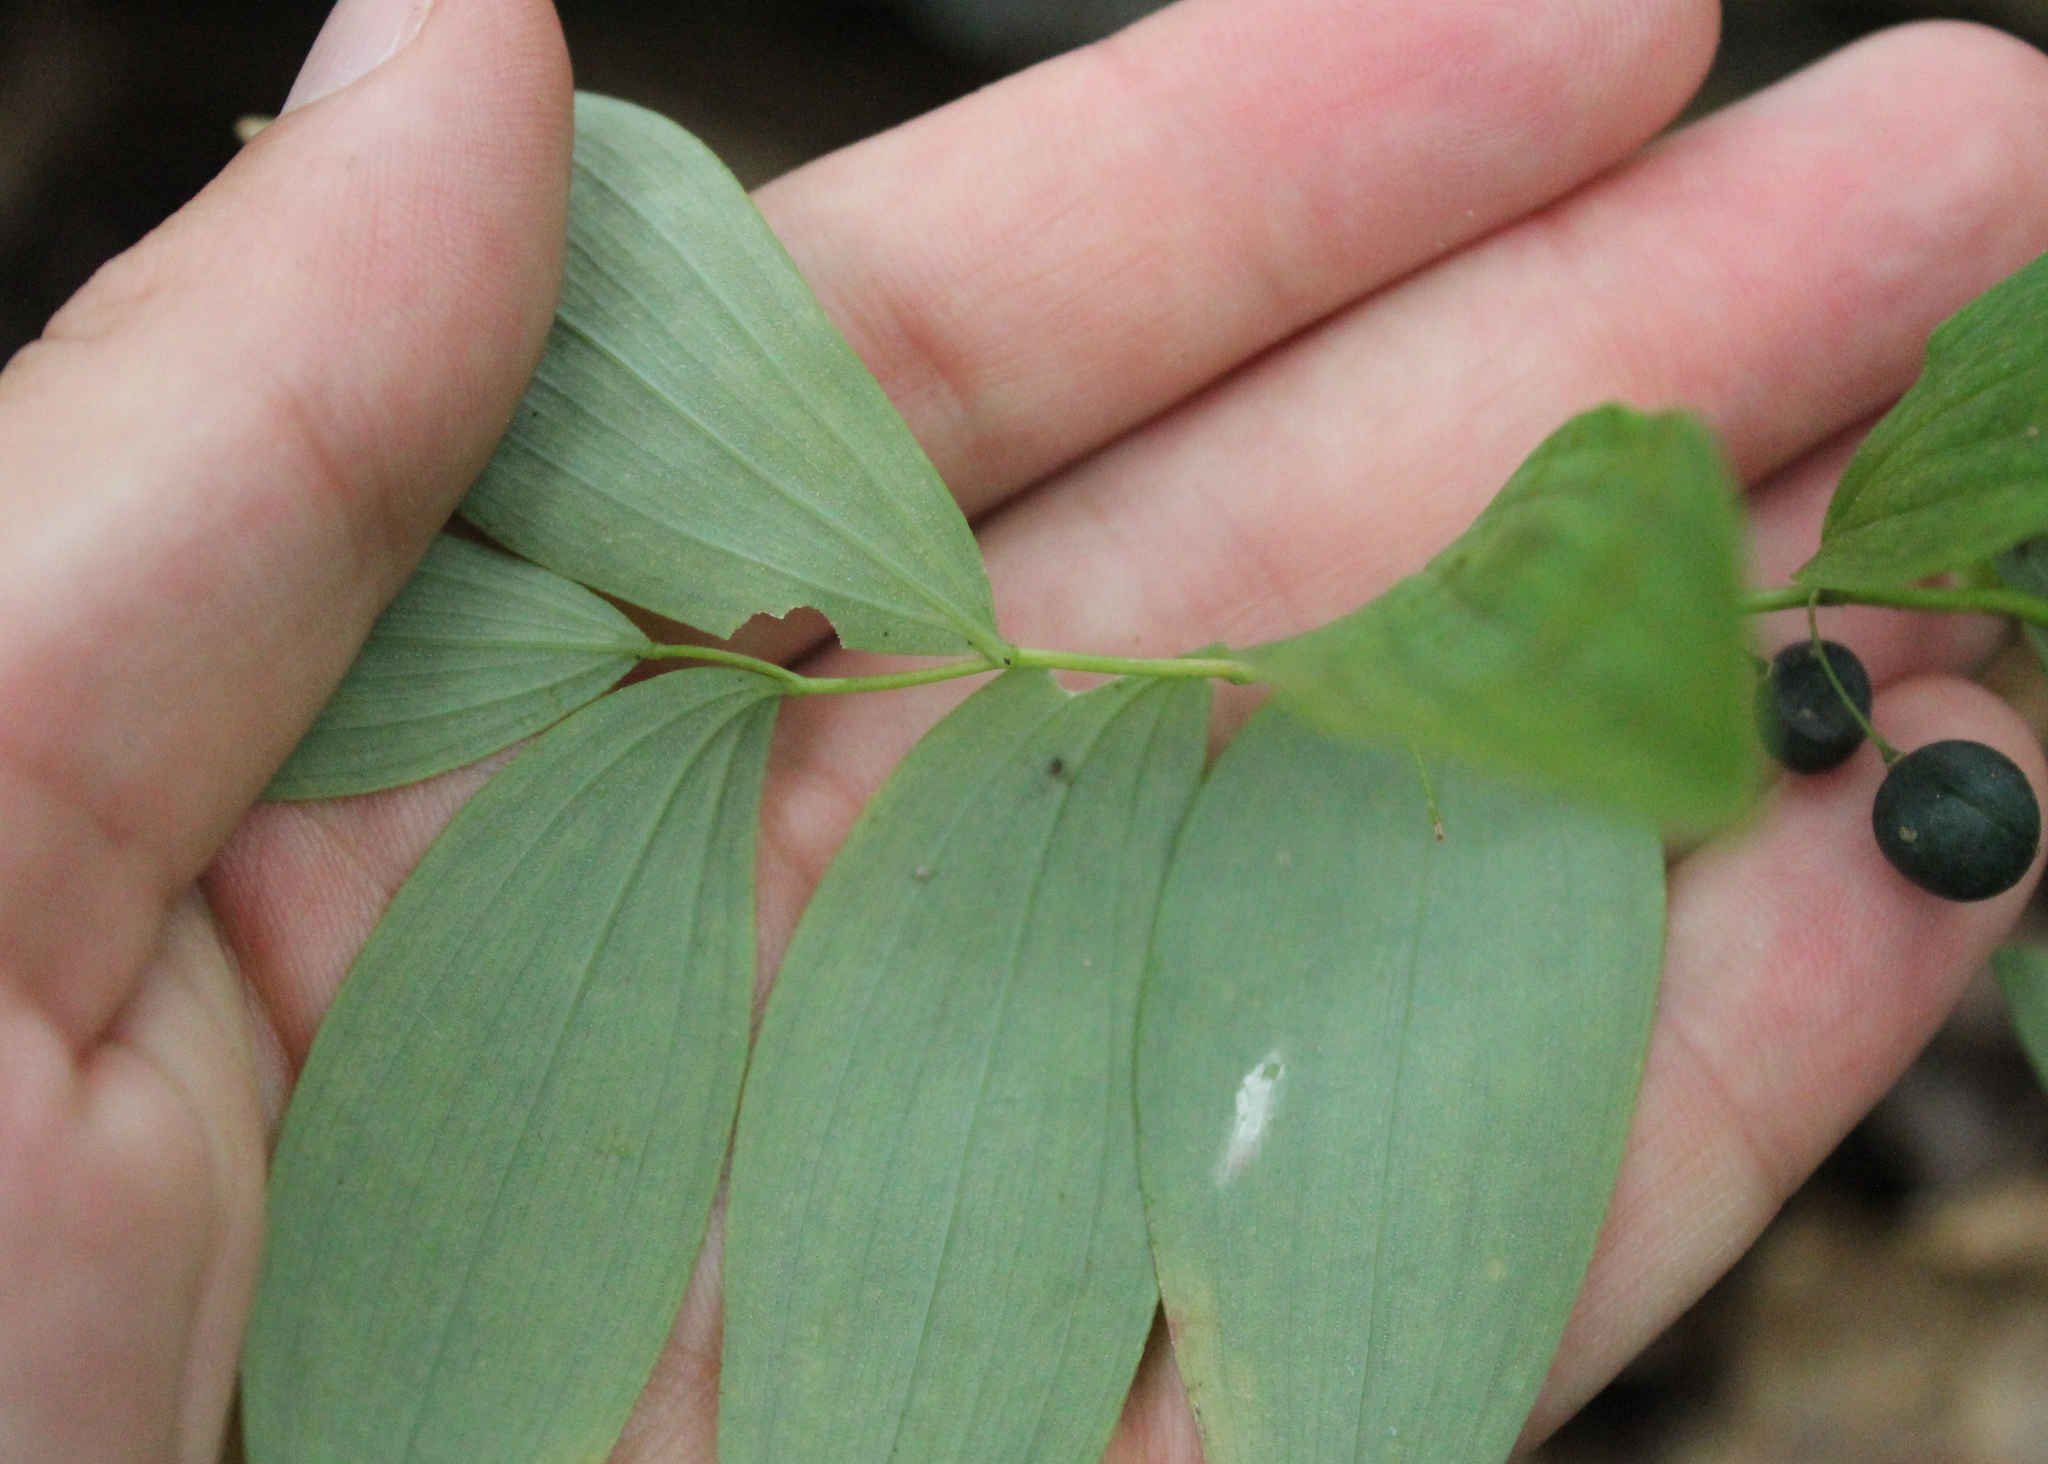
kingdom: Plantae
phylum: Tracheophyta
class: Liliopsida
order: Asparagales
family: Asparagaceae
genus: Polygonatum
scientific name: Polygonatum pubescens
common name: Downy solomon's seal
